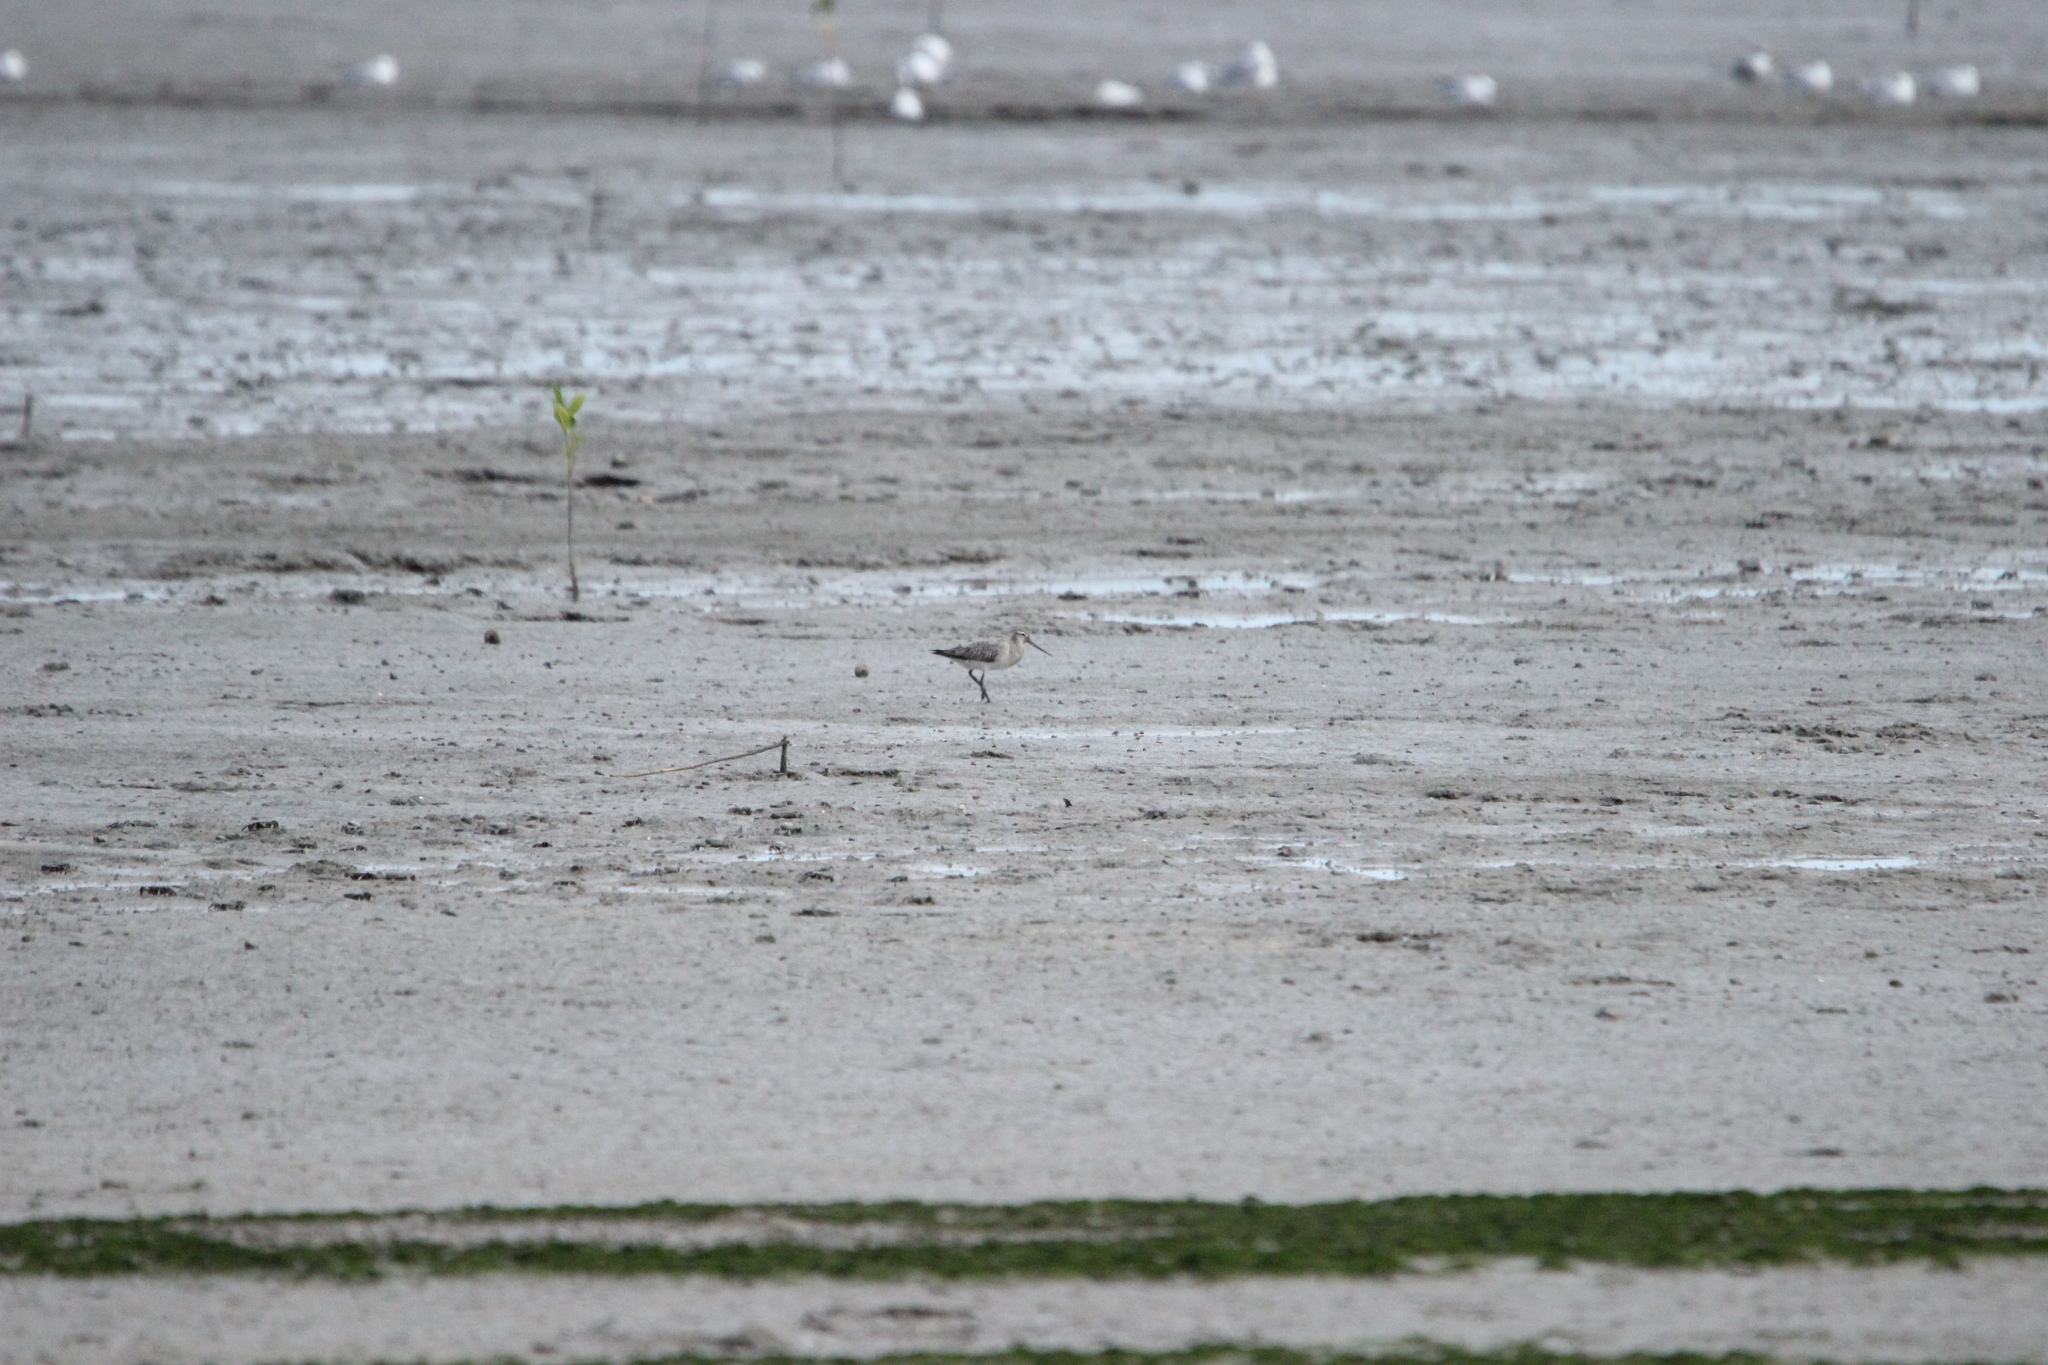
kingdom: Animalia
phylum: Chordata
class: Aves
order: Charadriiformes
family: Scolopacidae
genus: Limosa
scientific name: Limosa lapponica
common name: Bar-tailed godwit
